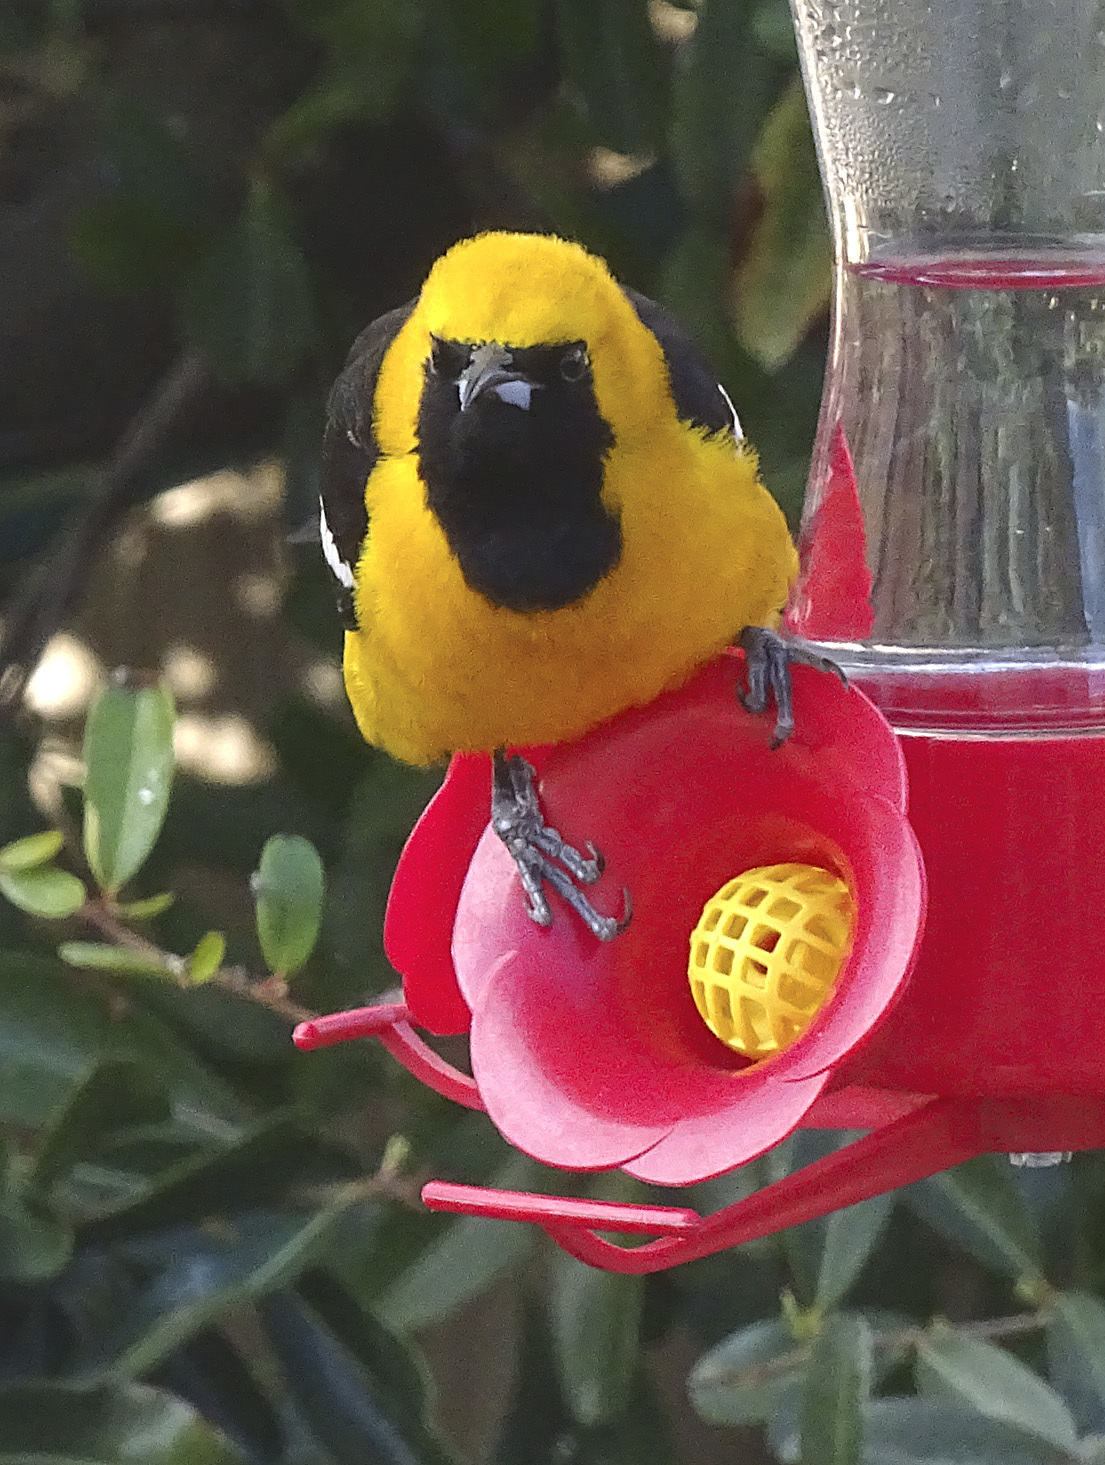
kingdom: Animalia
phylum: Chordata
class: Aves
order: Passeriformes
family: Icteridae
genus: Icterus
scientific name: Icterus cucullatus
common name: Hooded oriole
